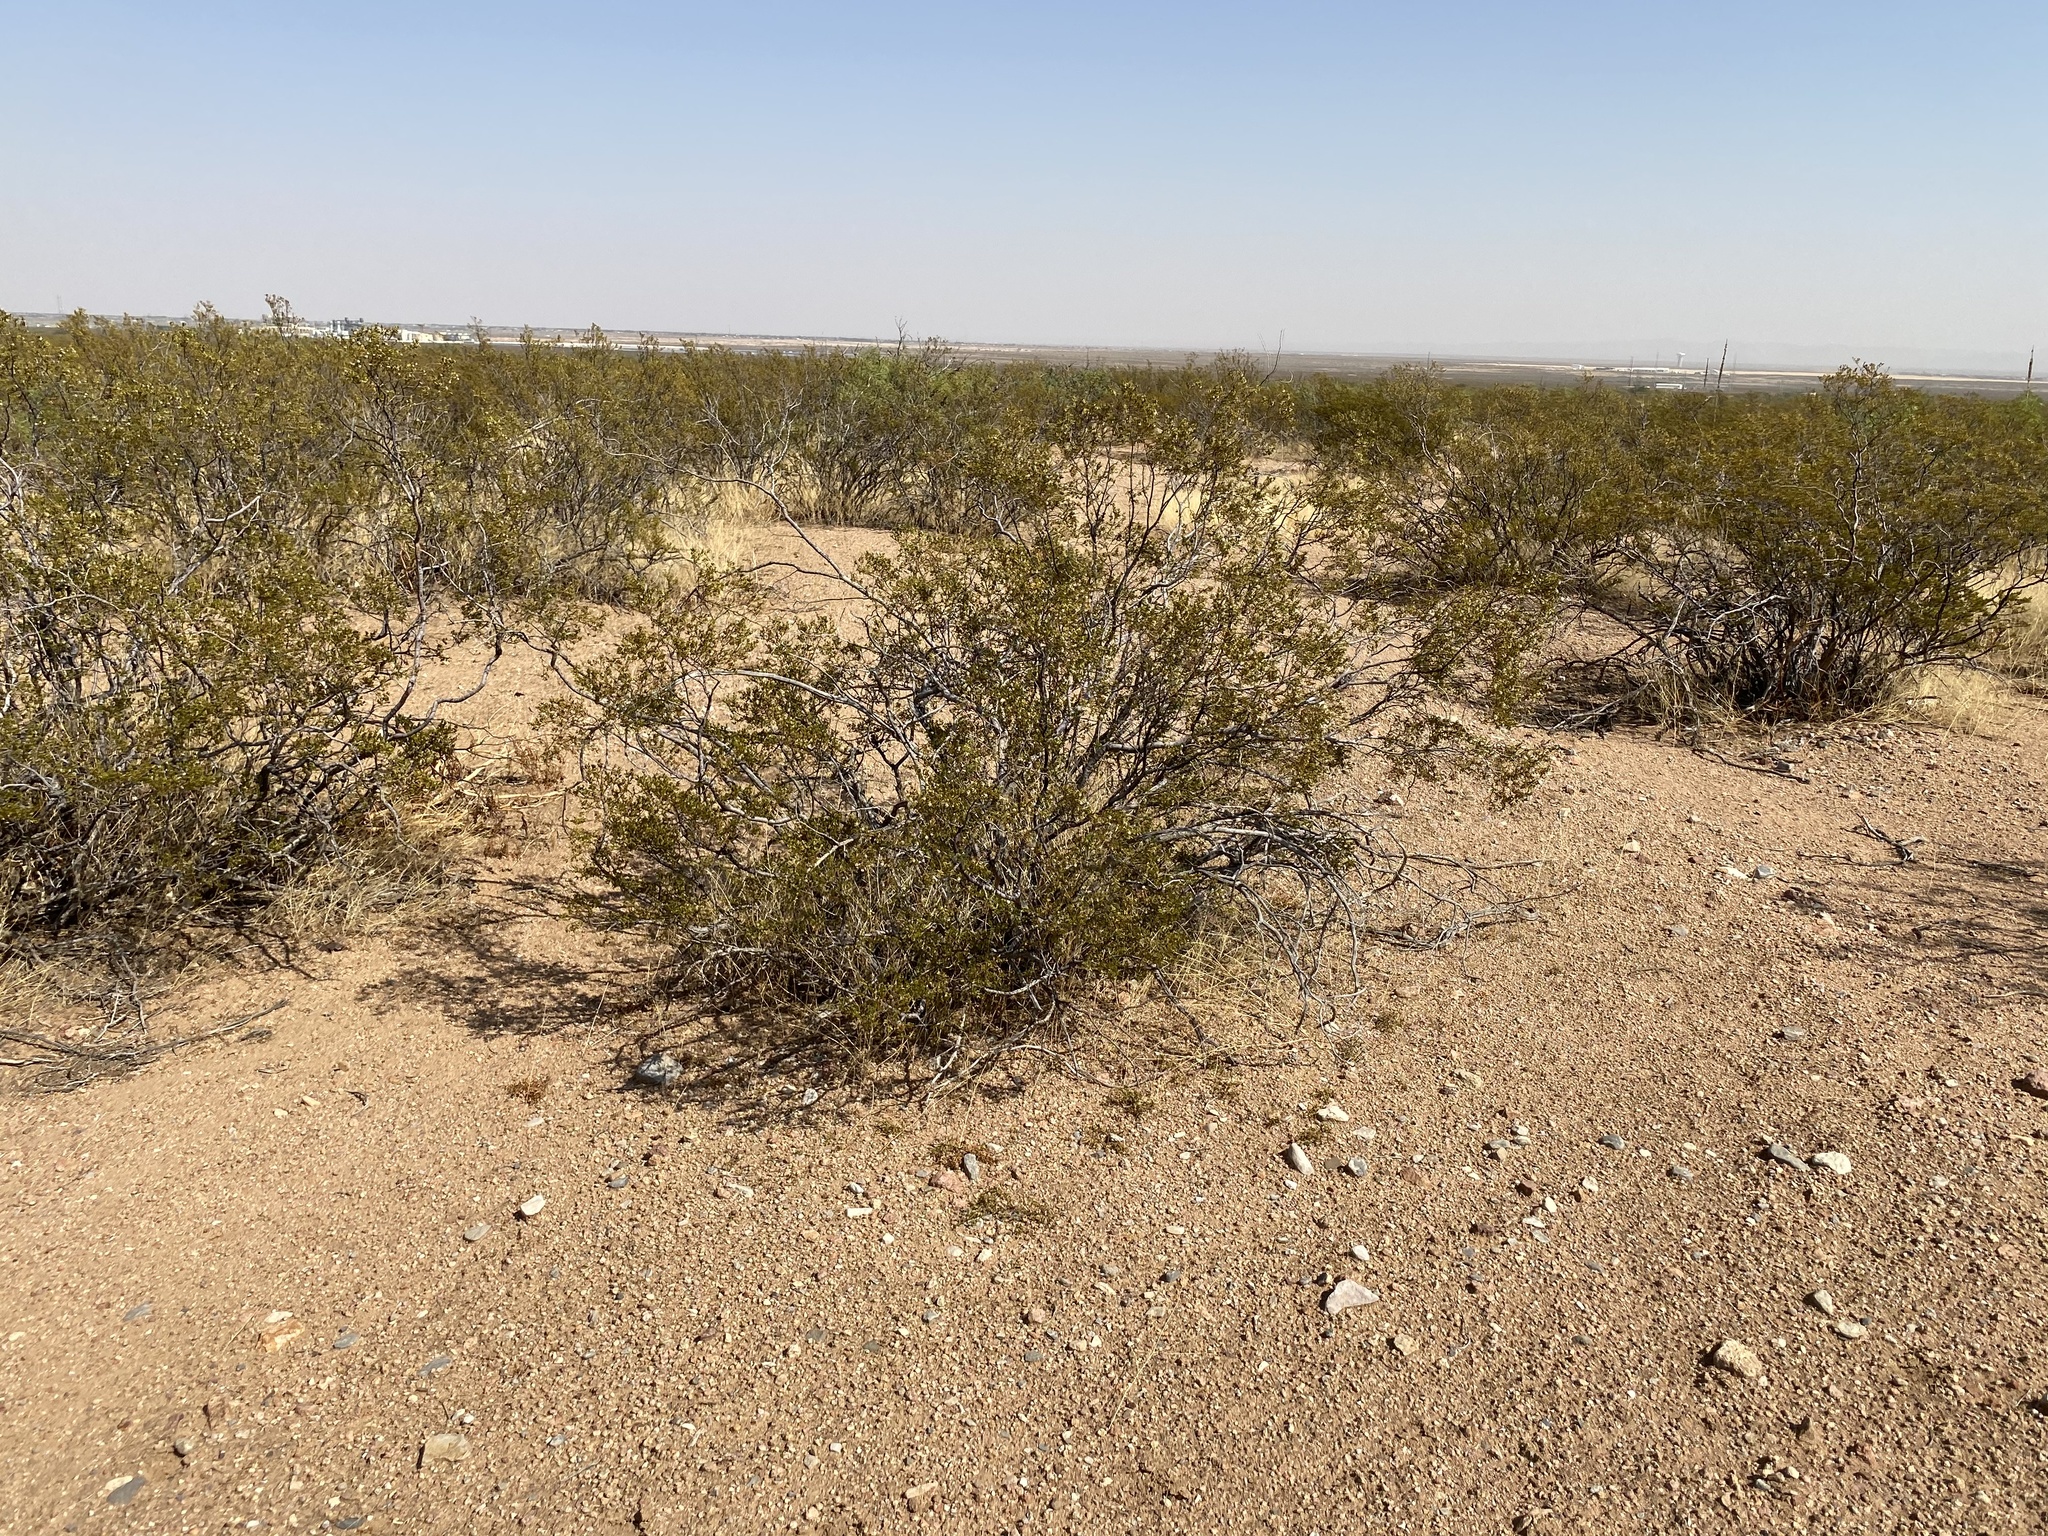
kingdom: Plantae
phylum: Tracheophyta
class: Magnoliopsida
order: Zygophyllales
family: Zygophyllaceae
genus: Larrea
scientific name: Larrea tridentata
